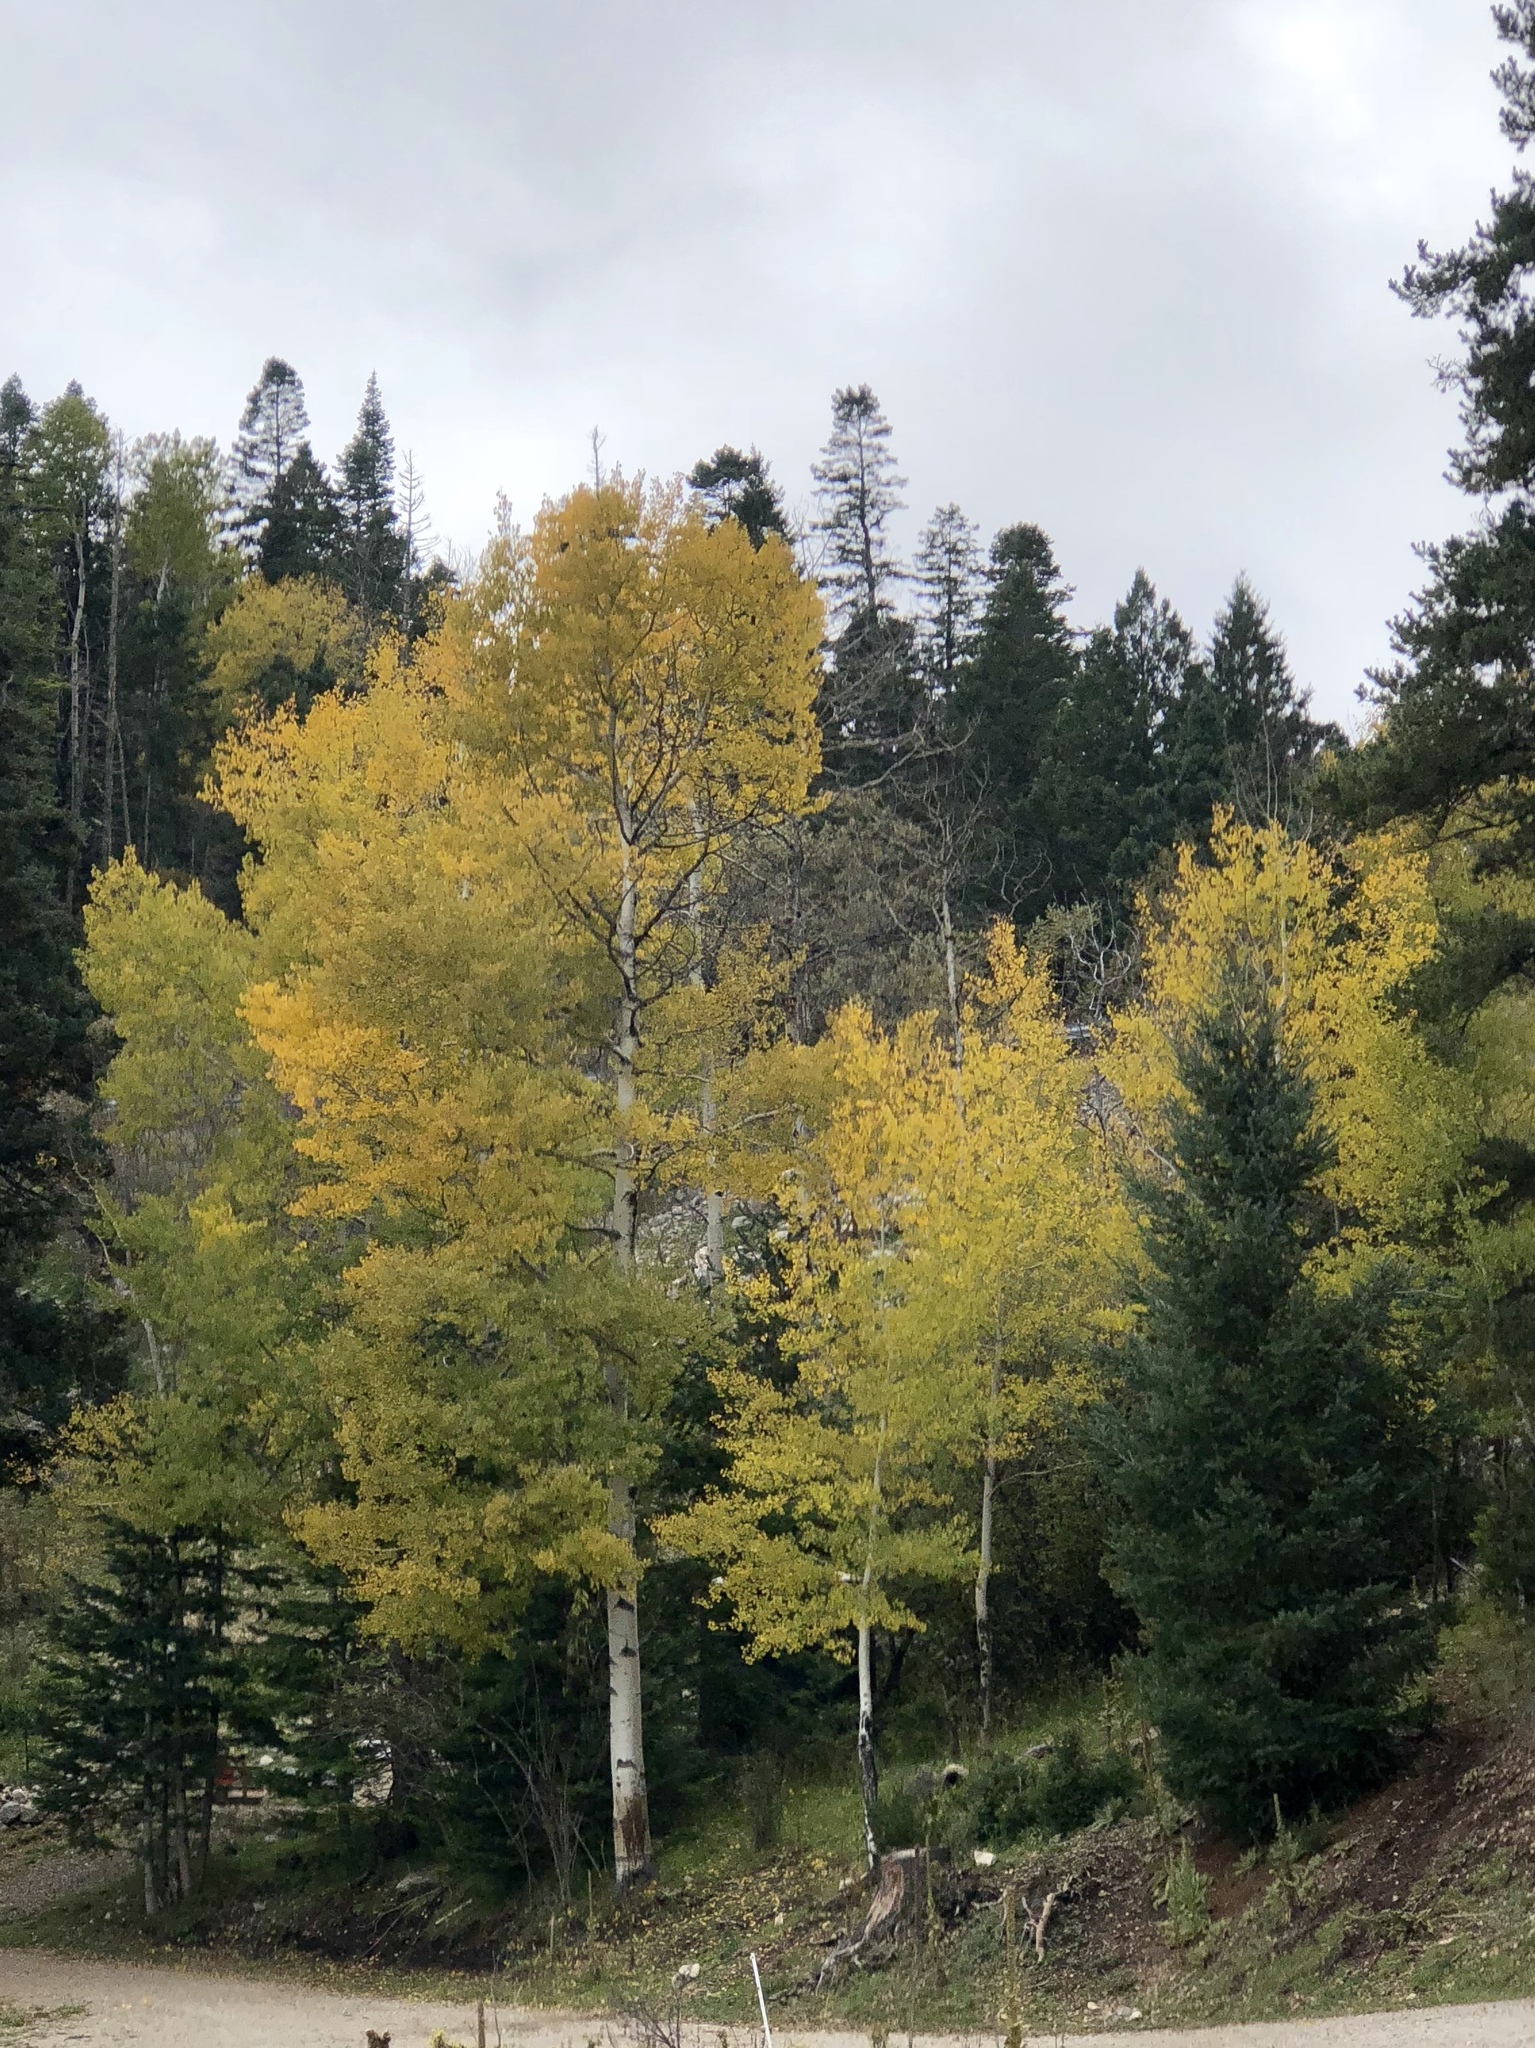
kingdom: Plantae
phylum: Tracheophyta
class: Magnoliopsida
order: Malpighiales
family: Salicaceae
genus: Populus
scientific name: Populus tremuloides
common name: Quaking aspen
